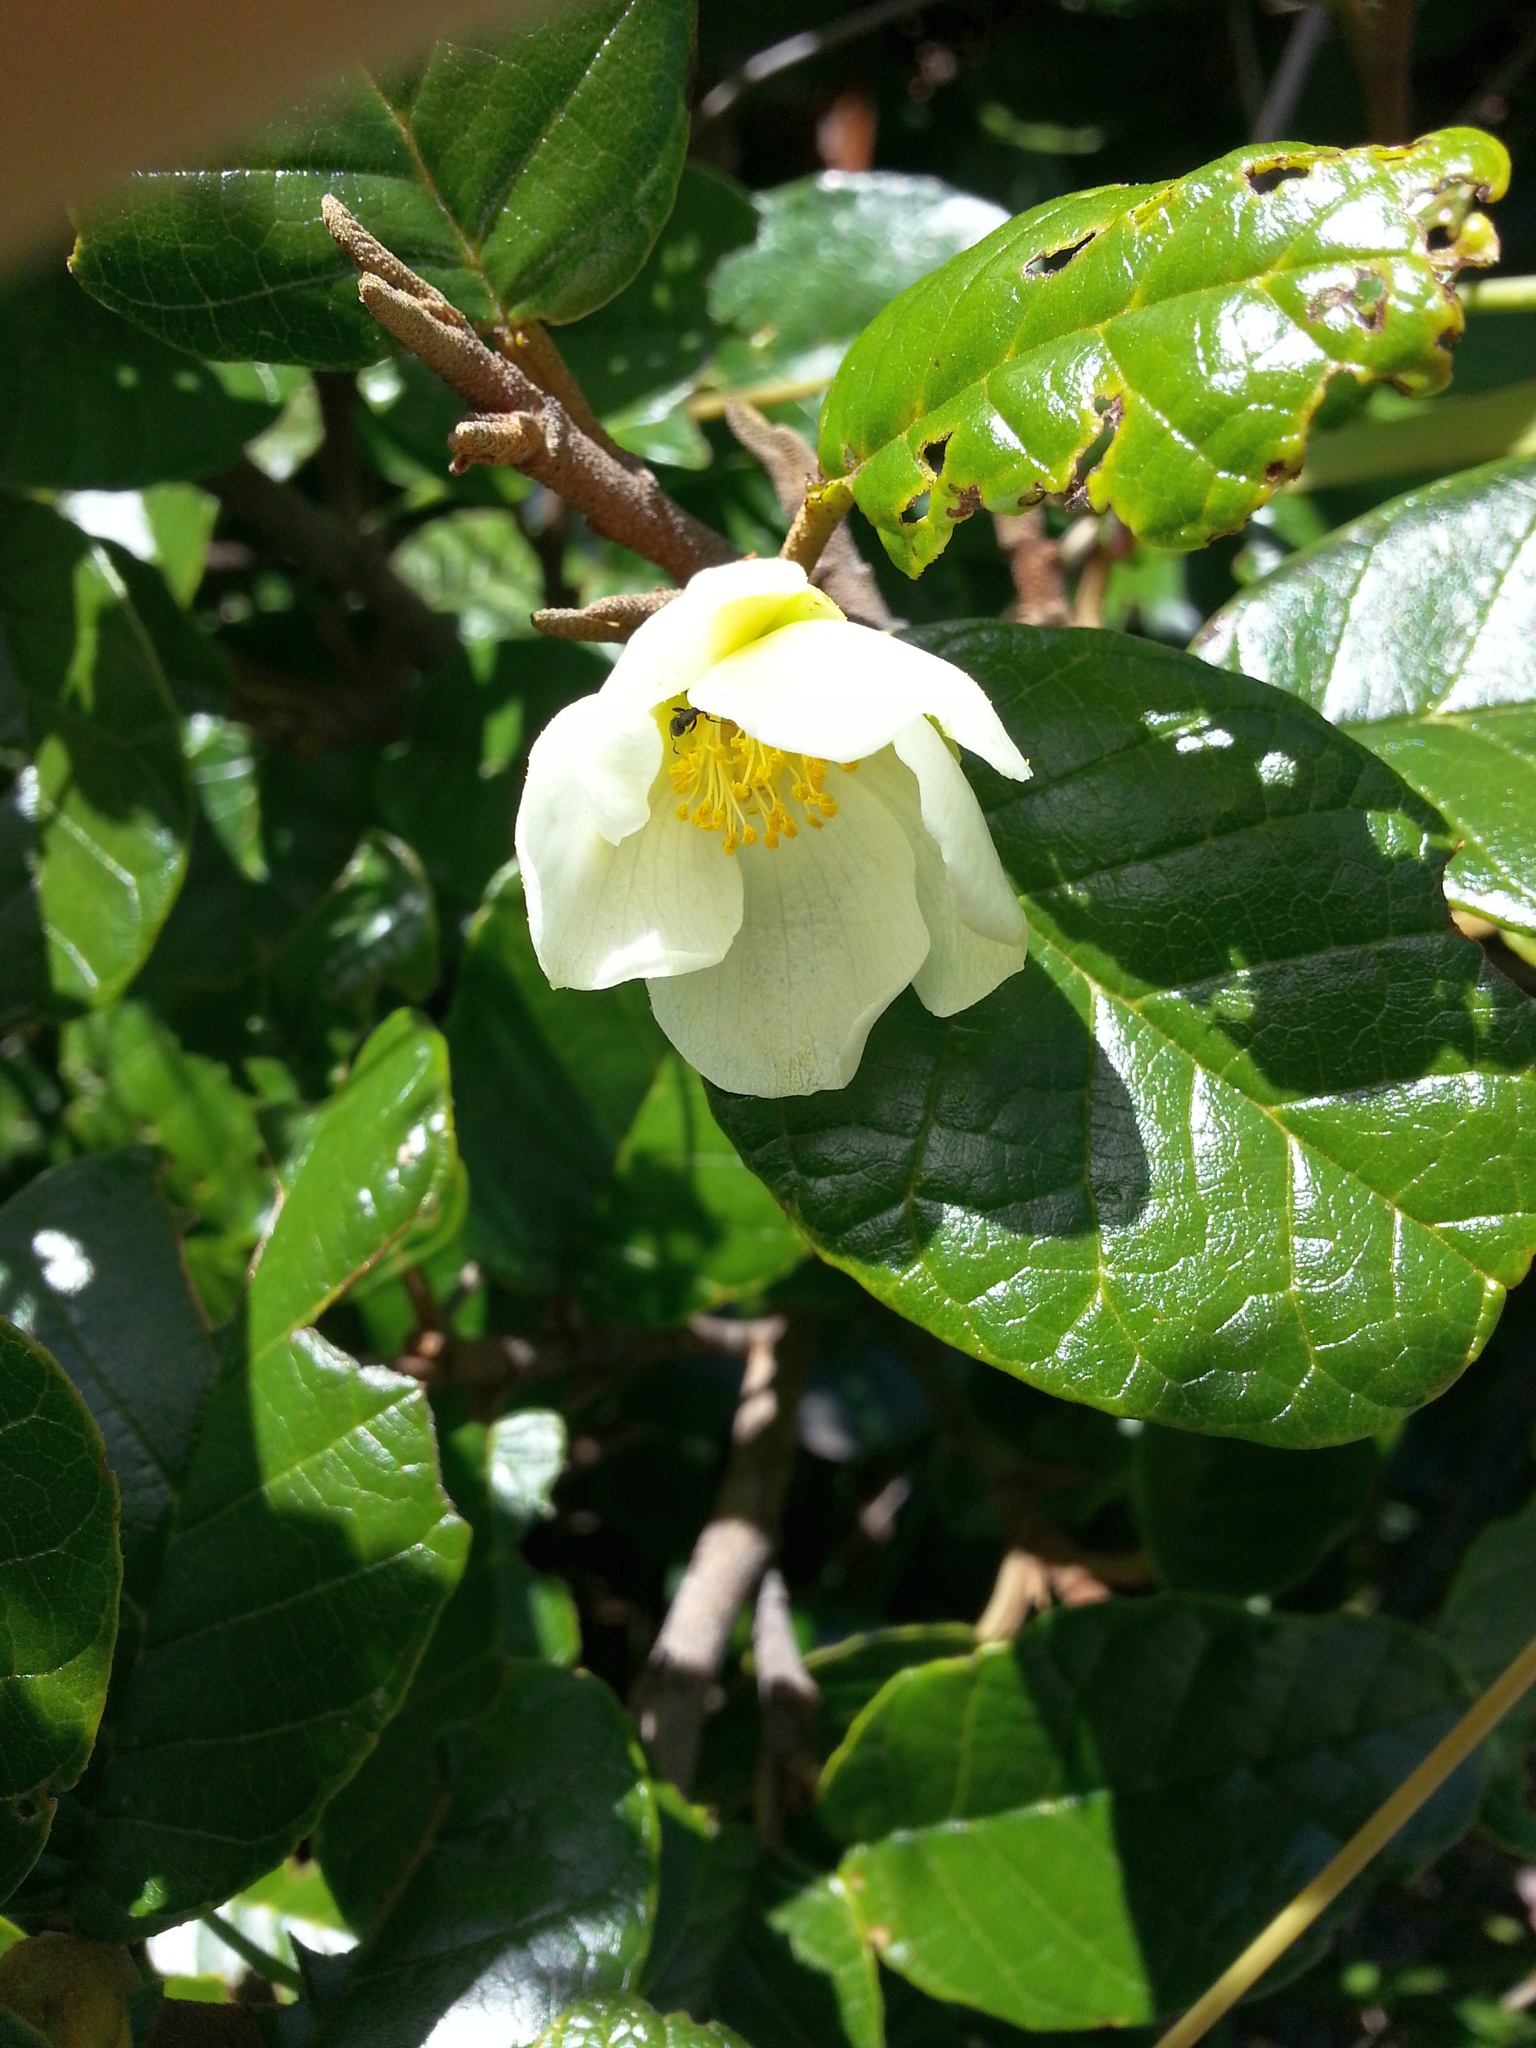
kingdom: Plantae
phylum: Tracheophyta
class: Magnoliopsida
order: Malvales
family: Sarcolaenaceae
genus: Pentachlaena
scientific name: Pentachlaena latifolia
